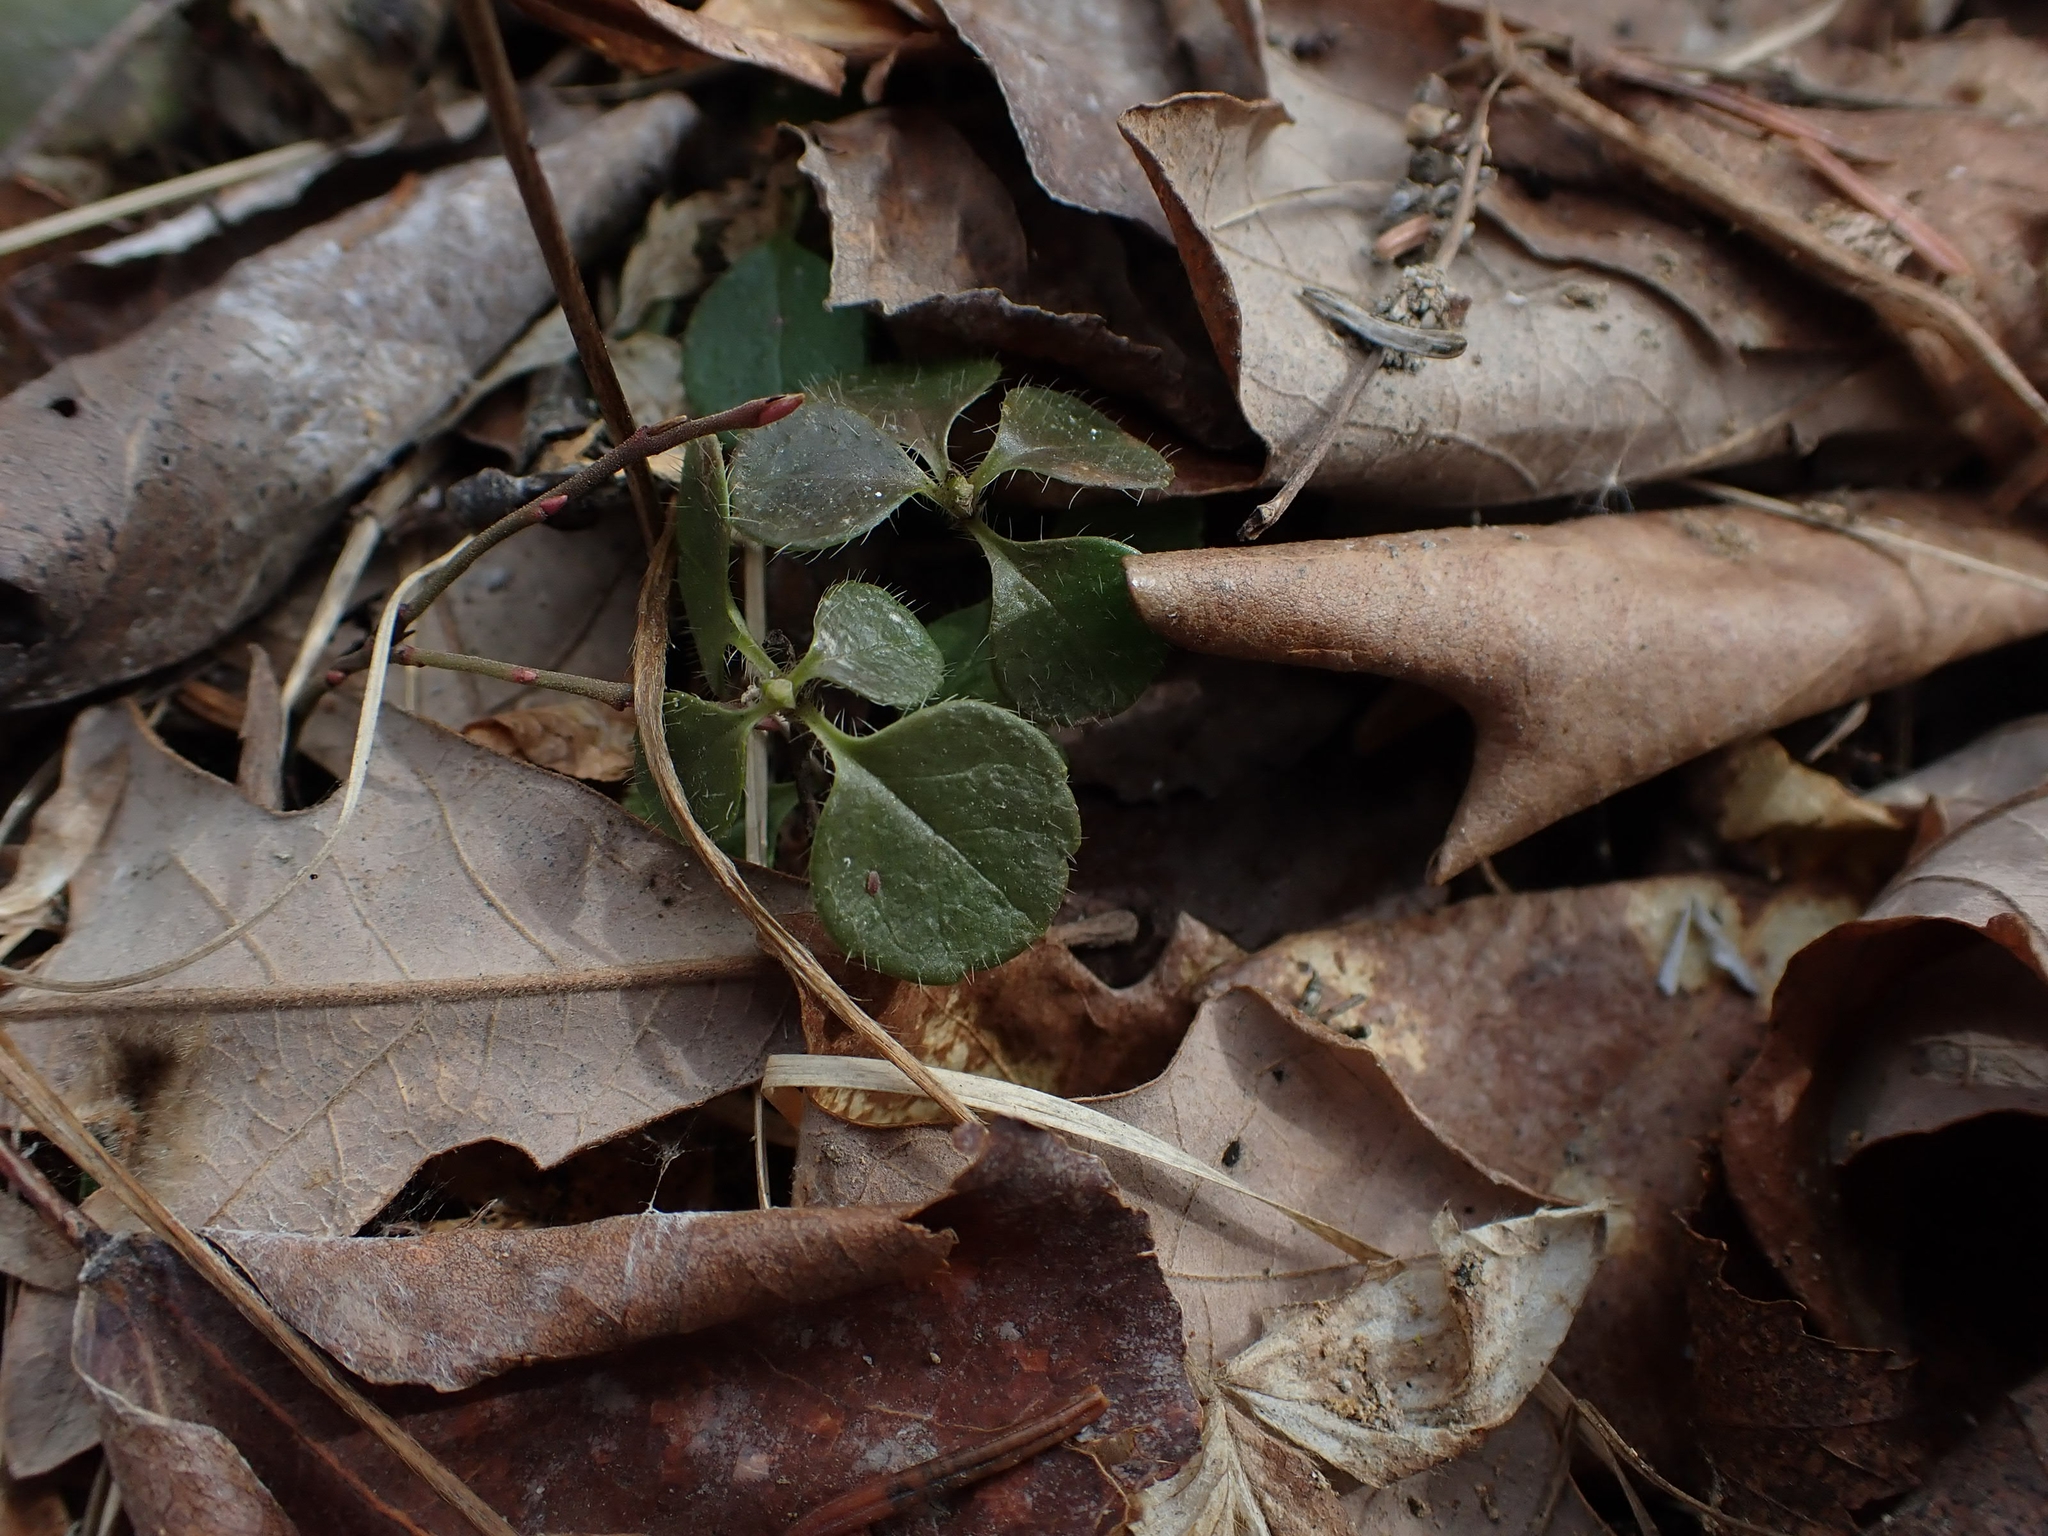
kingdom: Plantae
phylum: Tracheophyta
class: Magnoliopsida
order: Dipsacales
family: Caprifoliaceae
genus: Linnaea
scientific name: Linnaea borealis
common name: Twinflower
